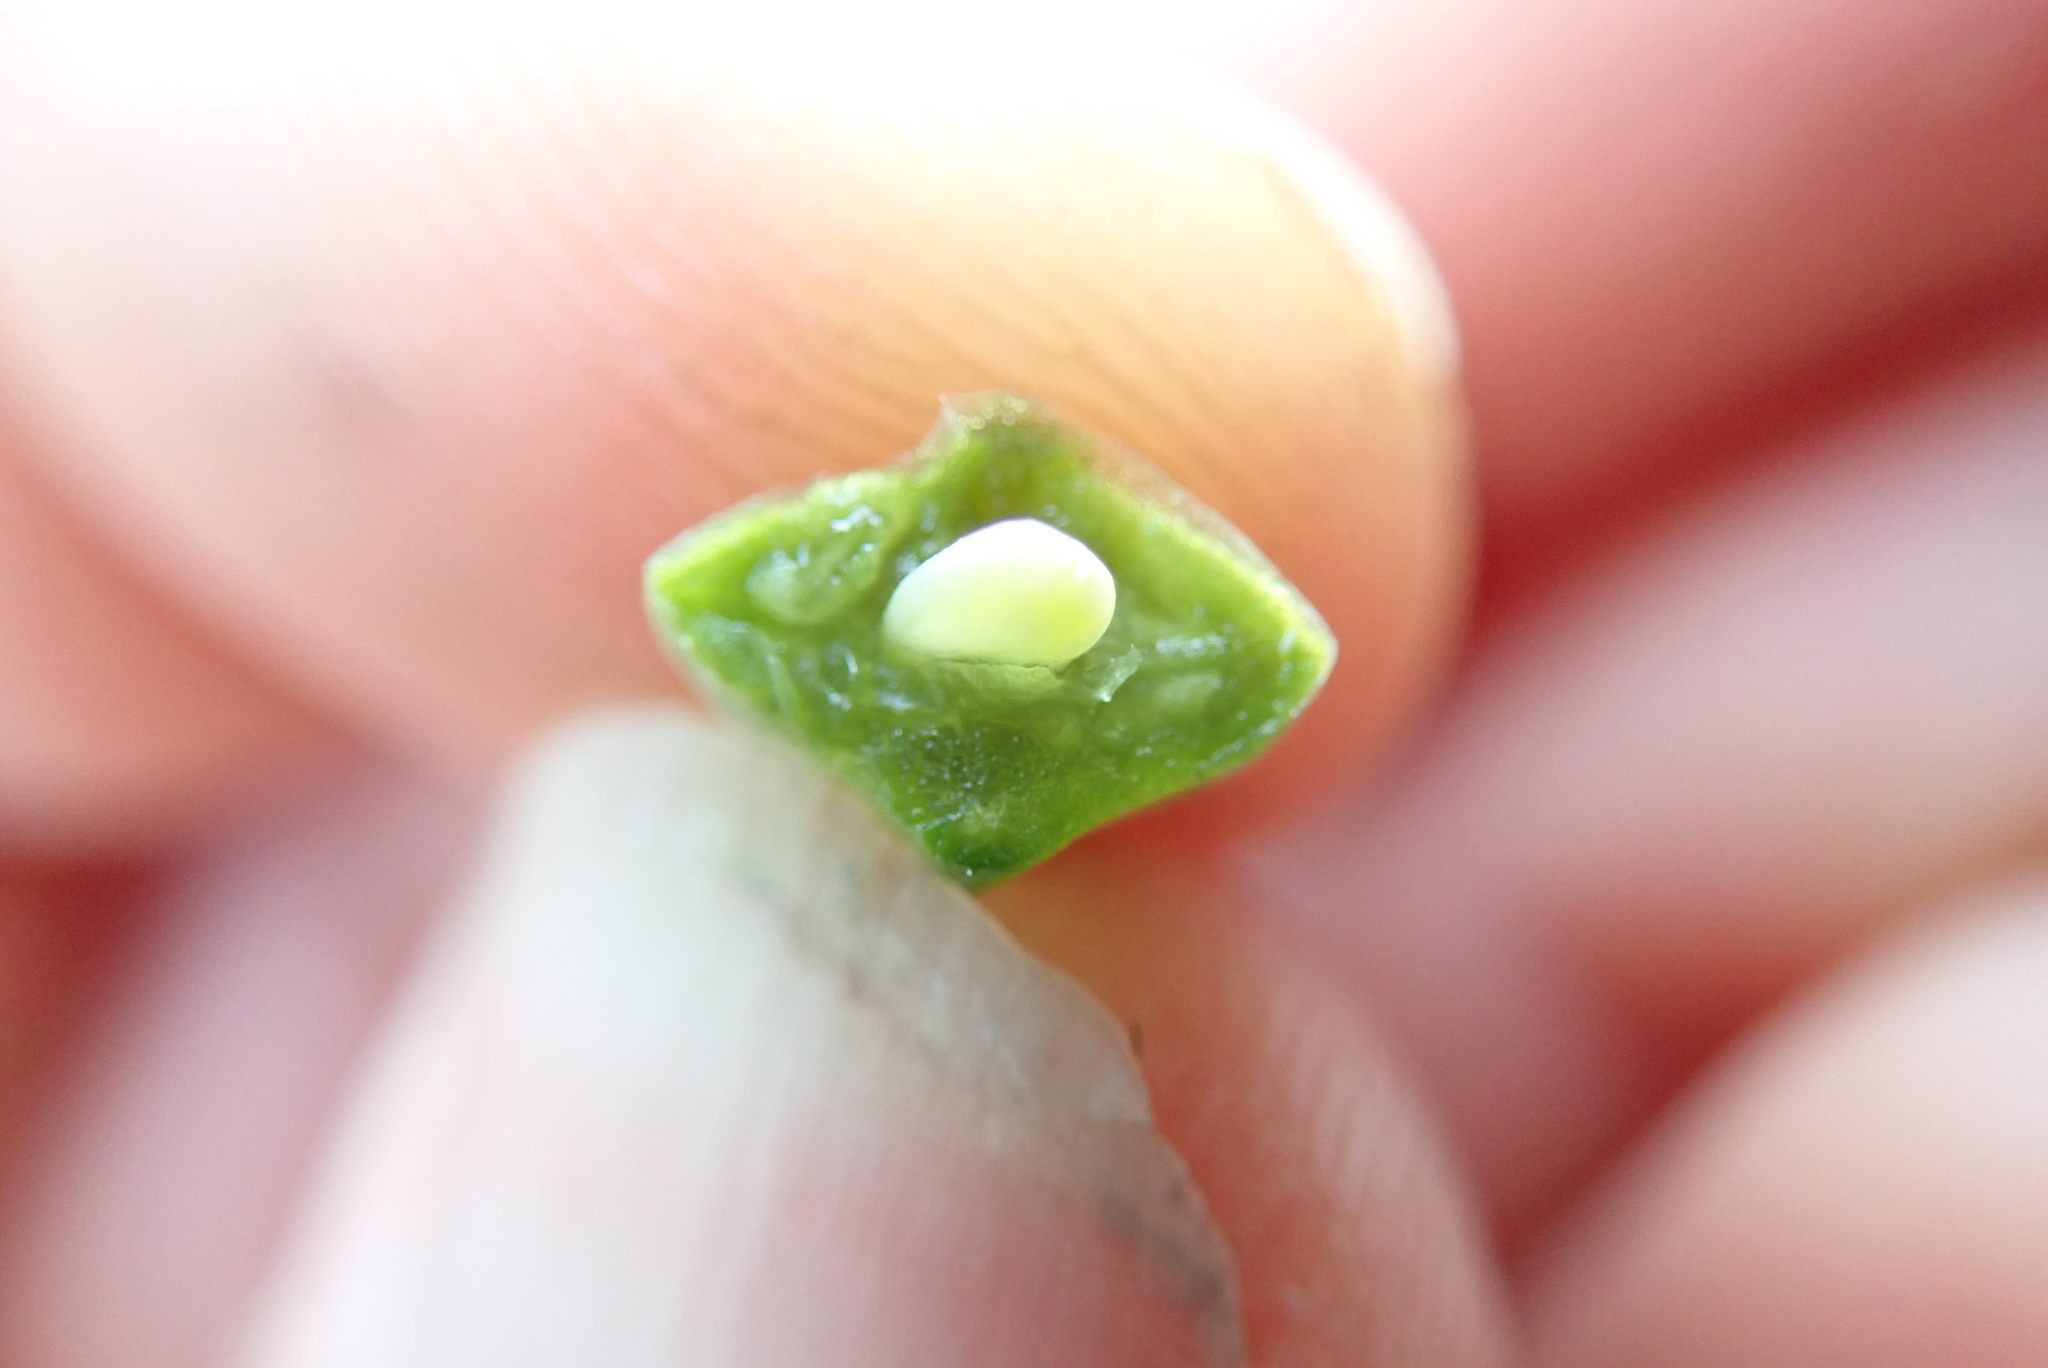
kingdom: Plantae
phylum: Tracheophyta
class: Magnoliopsida
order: Brassicales
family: Brassicaceae
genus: Cakile
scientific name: Cakile maritima
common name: Sea rocket
